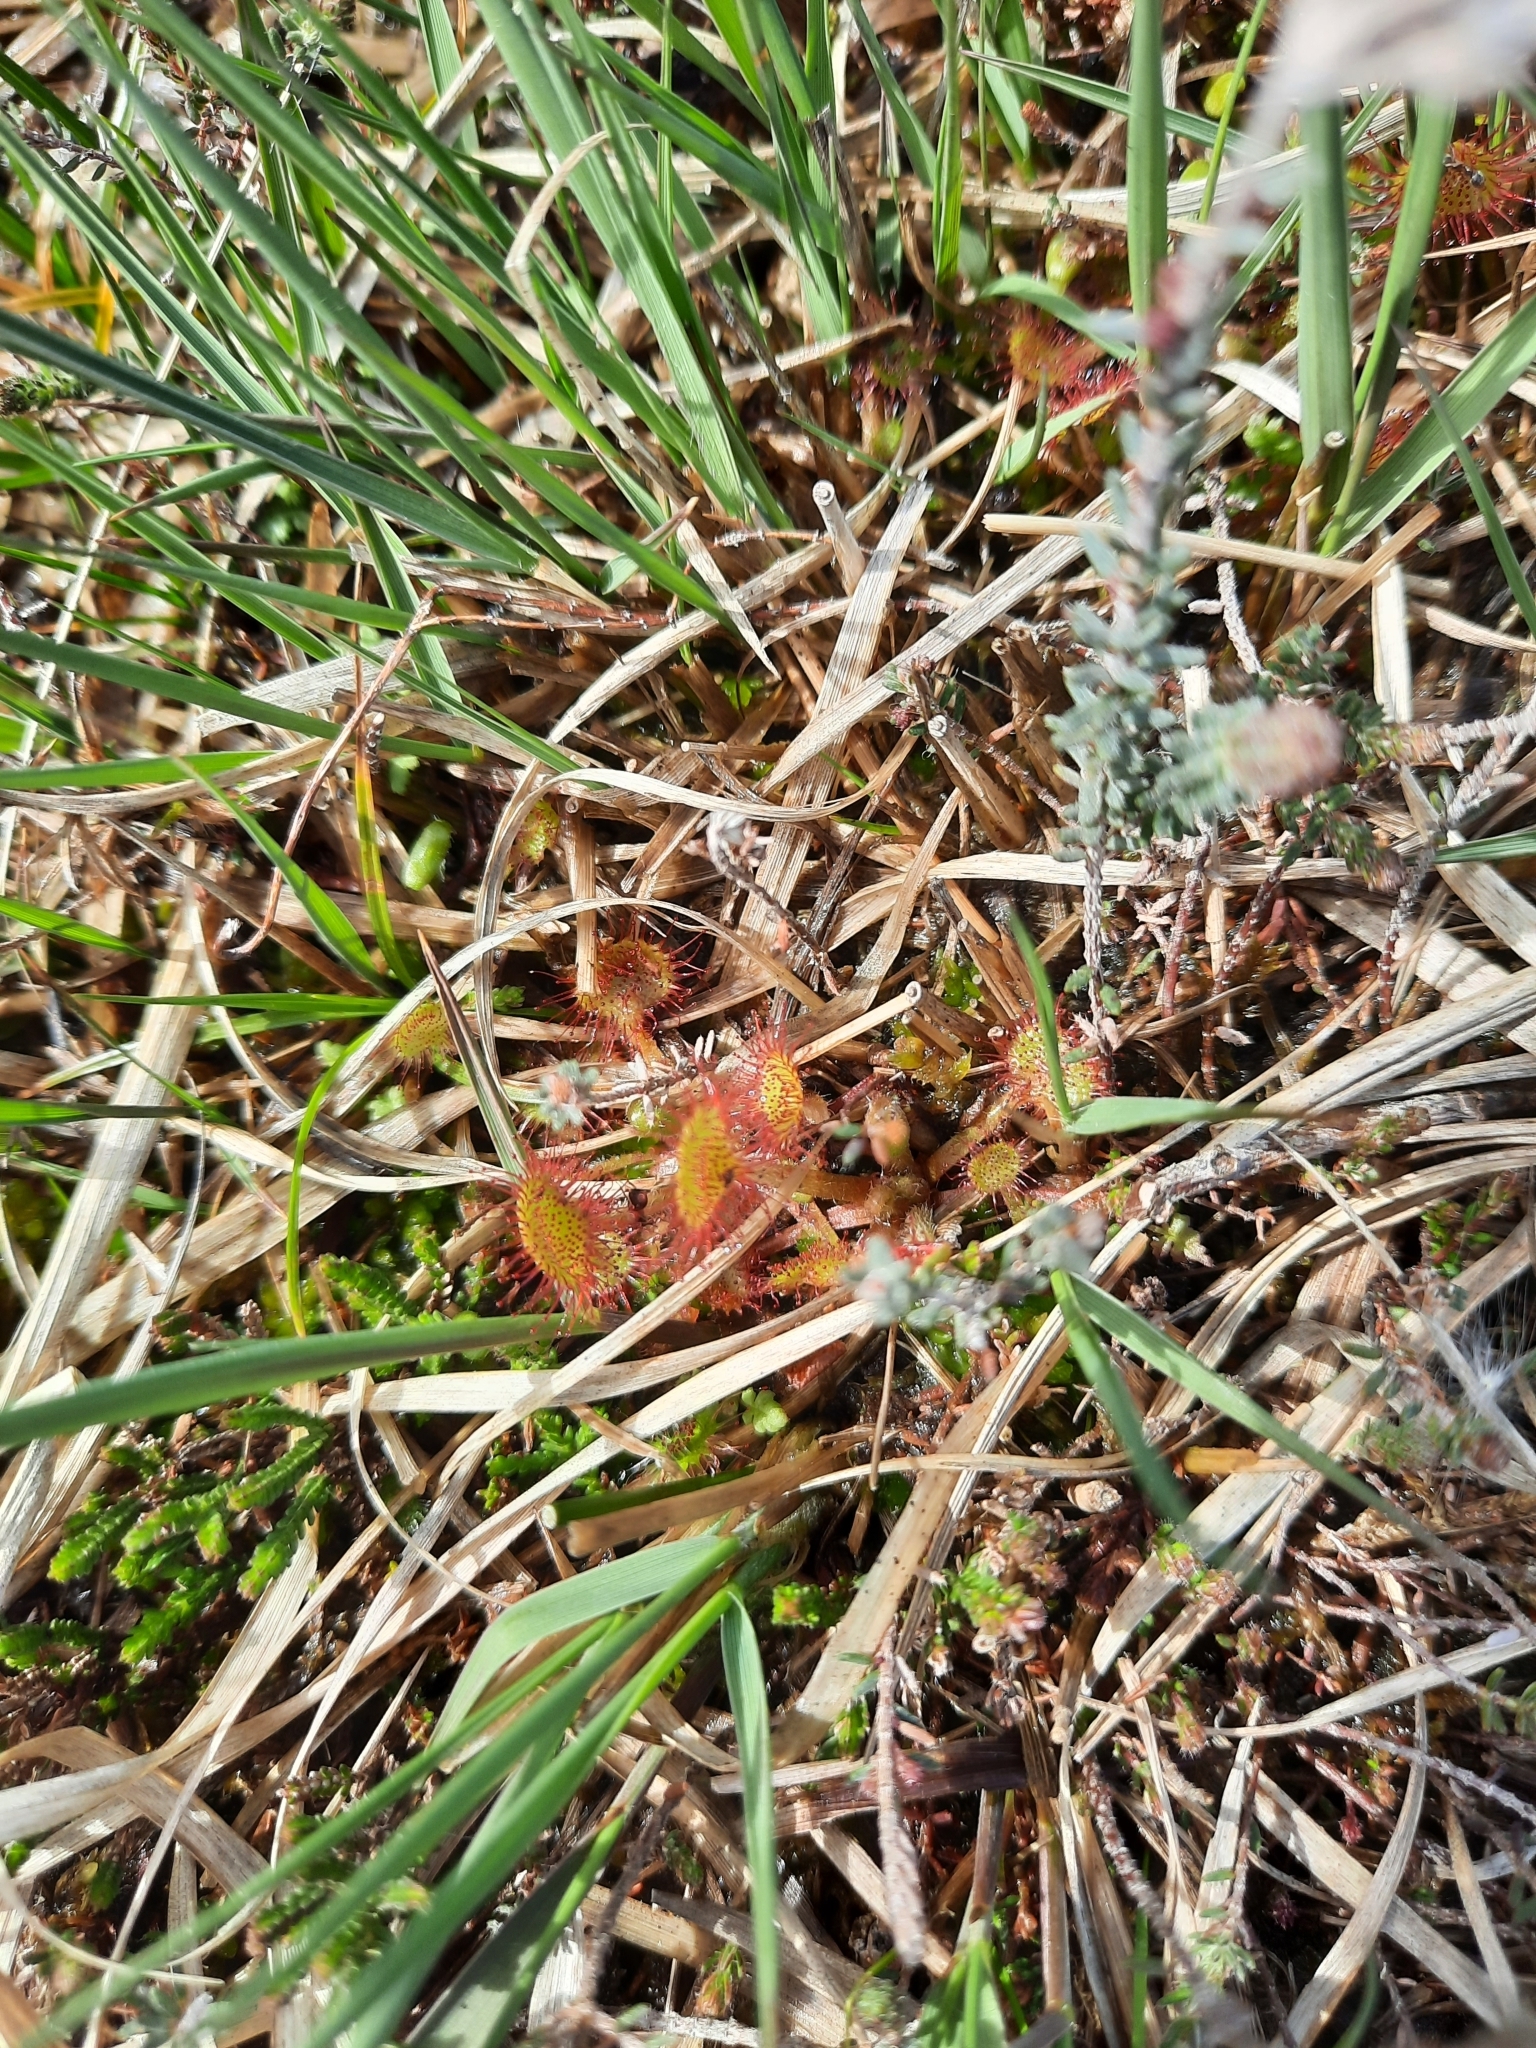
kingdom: Plantae
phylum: Tracheophyta
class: Magnoliopsida
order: Caryophyllales
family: Droseraceae
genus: Drosera
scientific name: Drosera rotundifolia
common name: Round-leaved sundew
